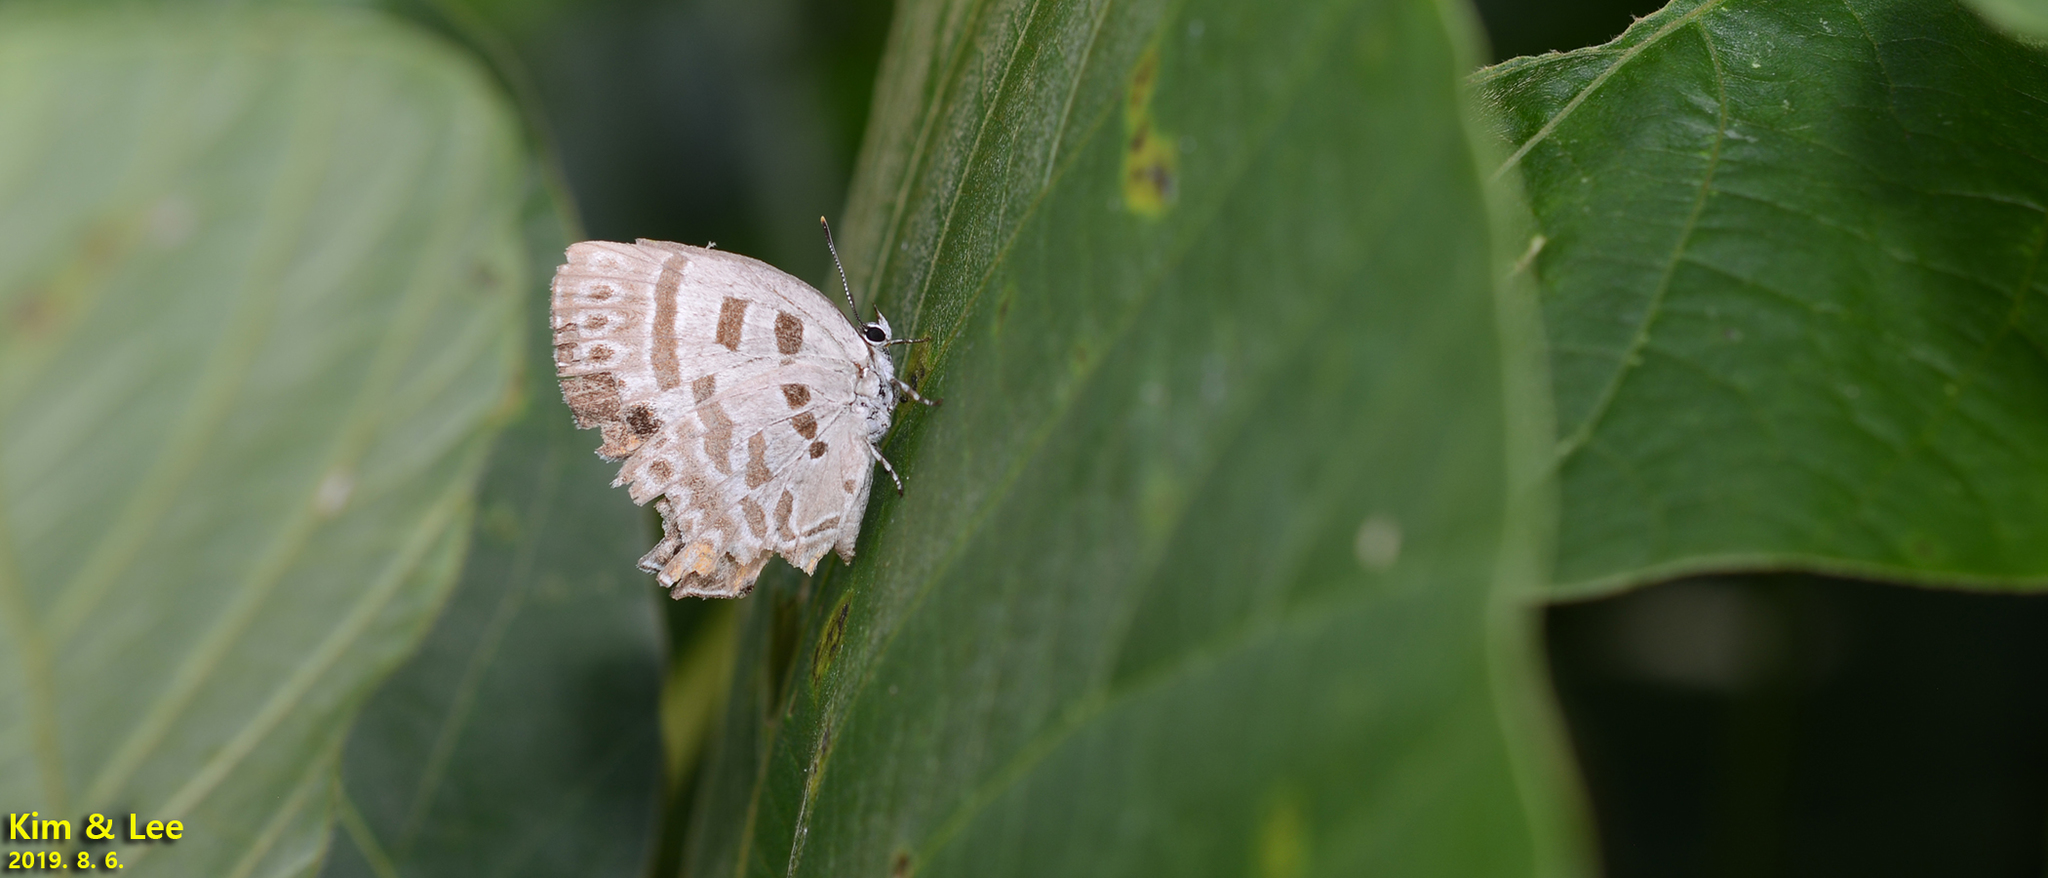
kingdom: Animalia
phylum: Arthropoda
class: Insecta
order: Lepidoptera
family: Lycaenidae
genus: Antigius
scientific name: Antigius butleri
